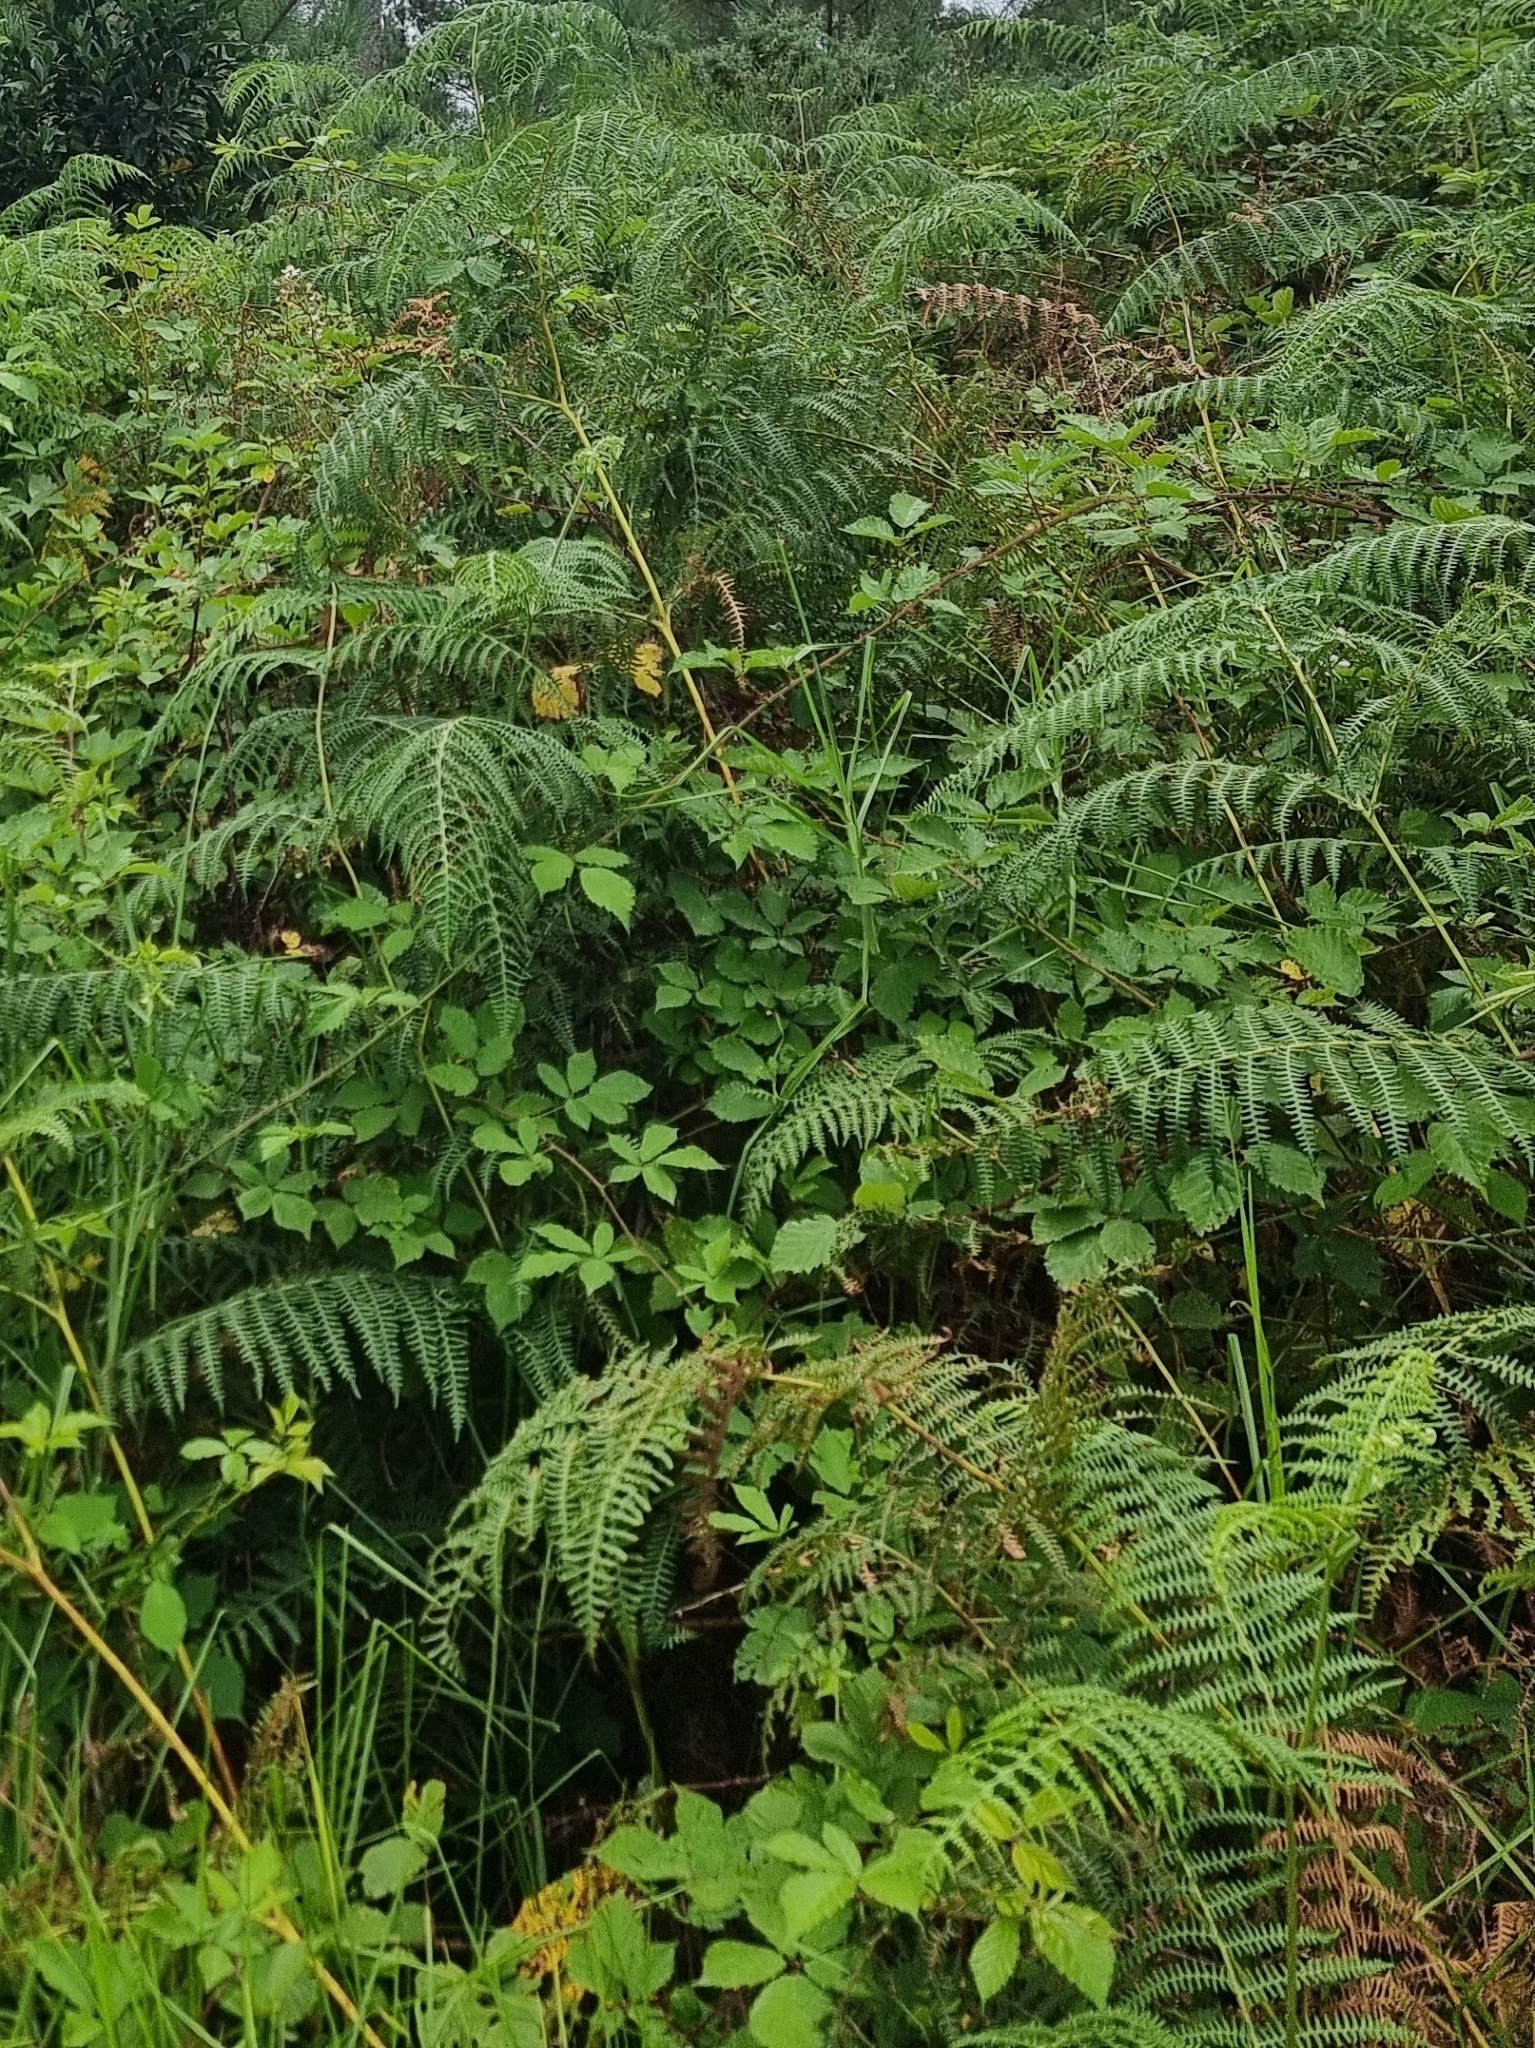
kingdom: Plantae
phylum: Tracheophyta
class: Polypodiopsida
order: Polypodiales
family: Dennstaedtiaceae
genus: Pteridium
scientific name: Pteridium aquilinum
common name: Bracken
